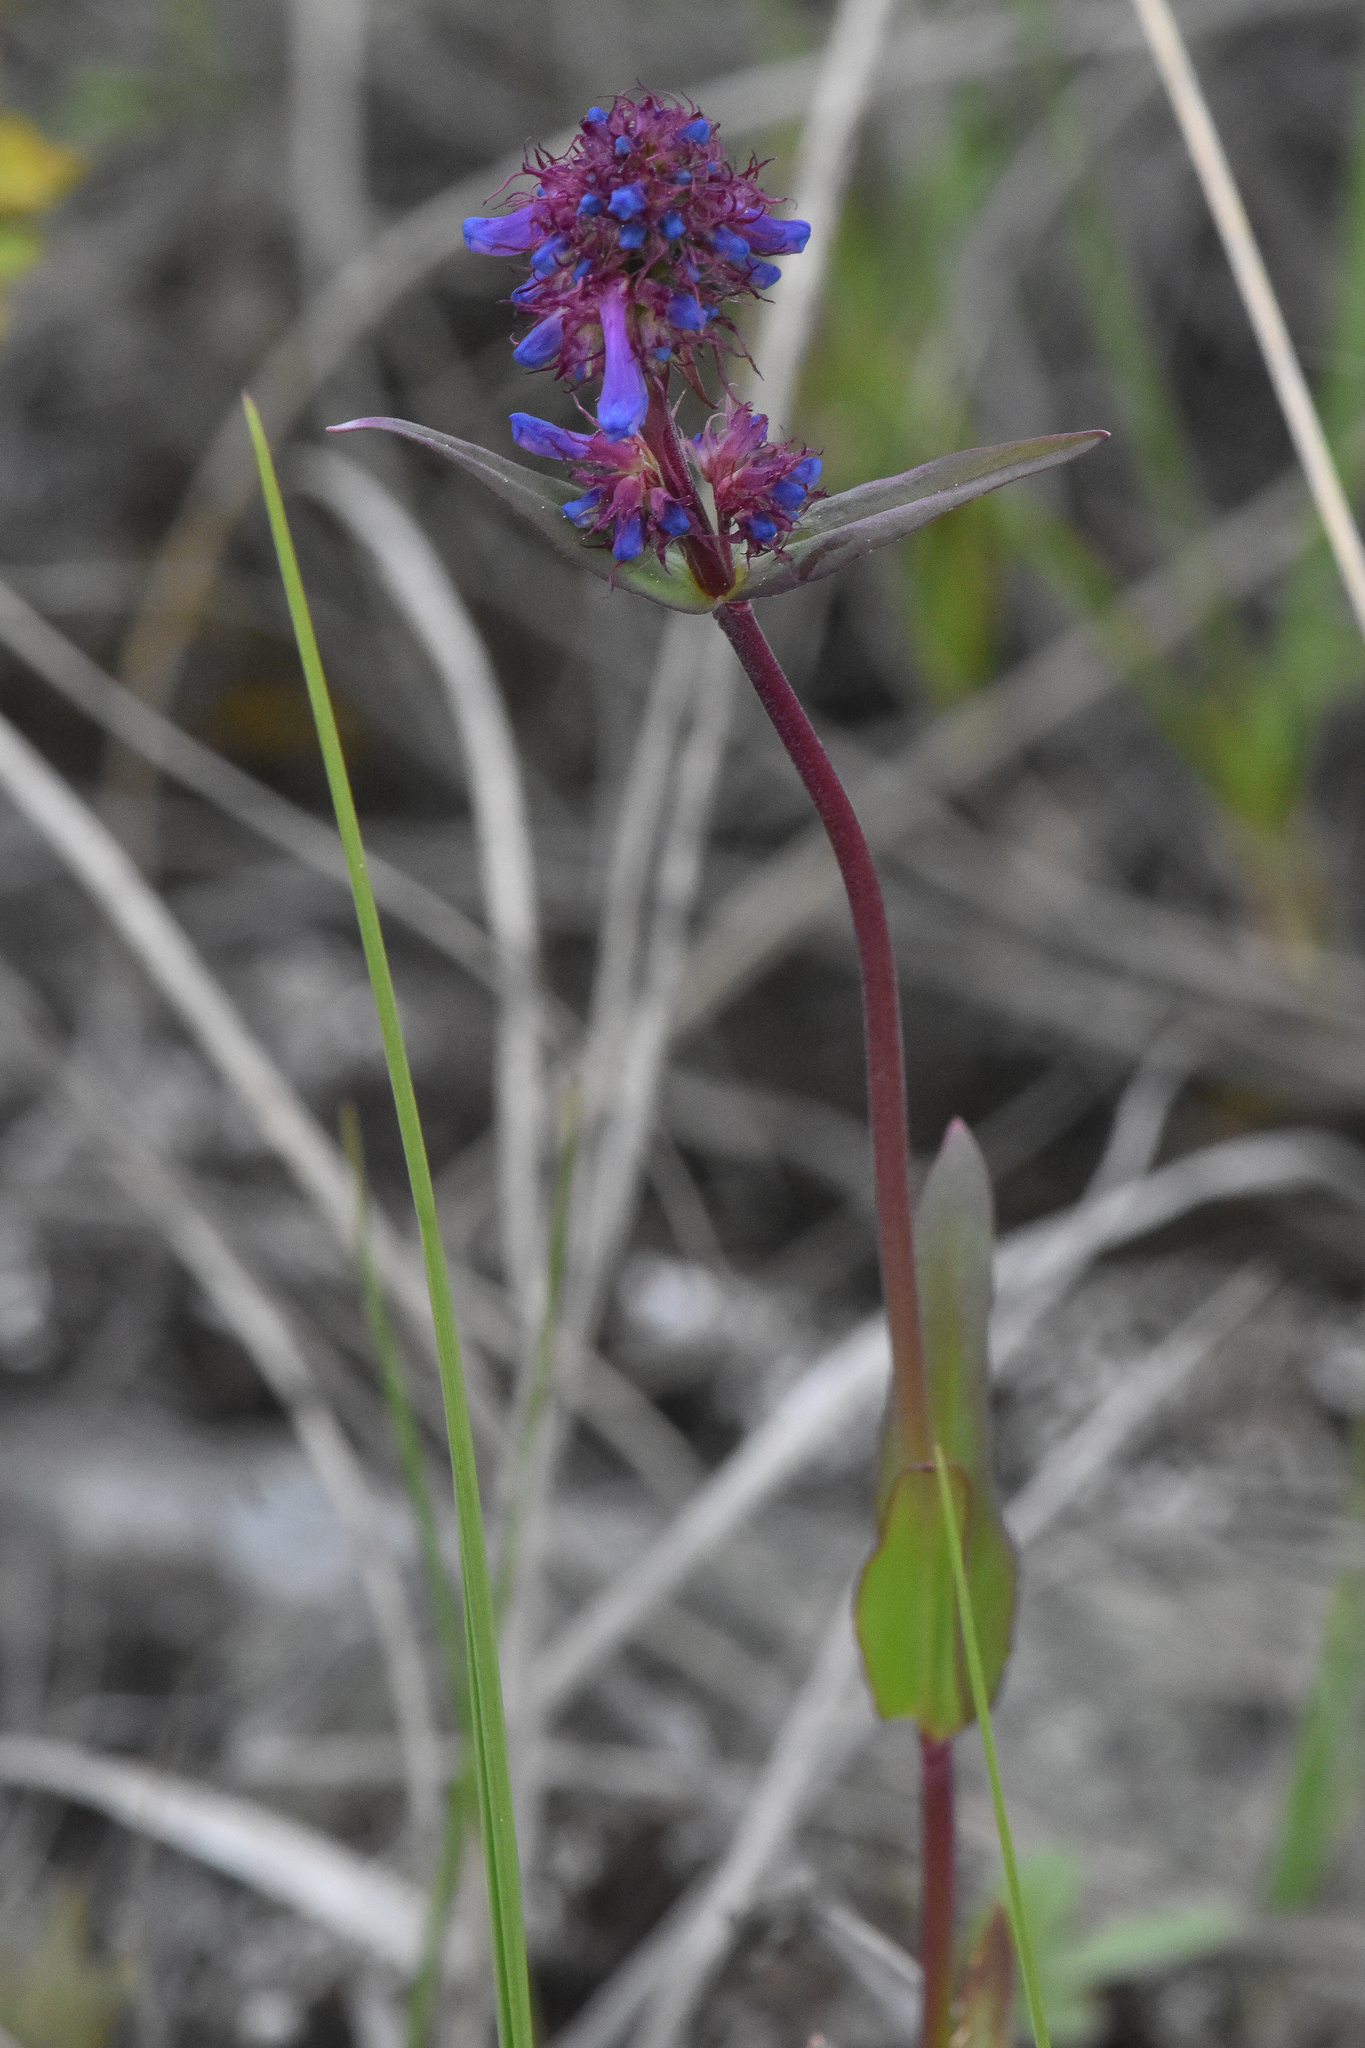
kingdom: Plantae
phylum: Tracheophyta
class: Magnoliopsida
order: Lamiales
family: Plantaginaceae
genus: Penstemon
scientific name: Penstemon procerus
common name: Small-flower penstemon
